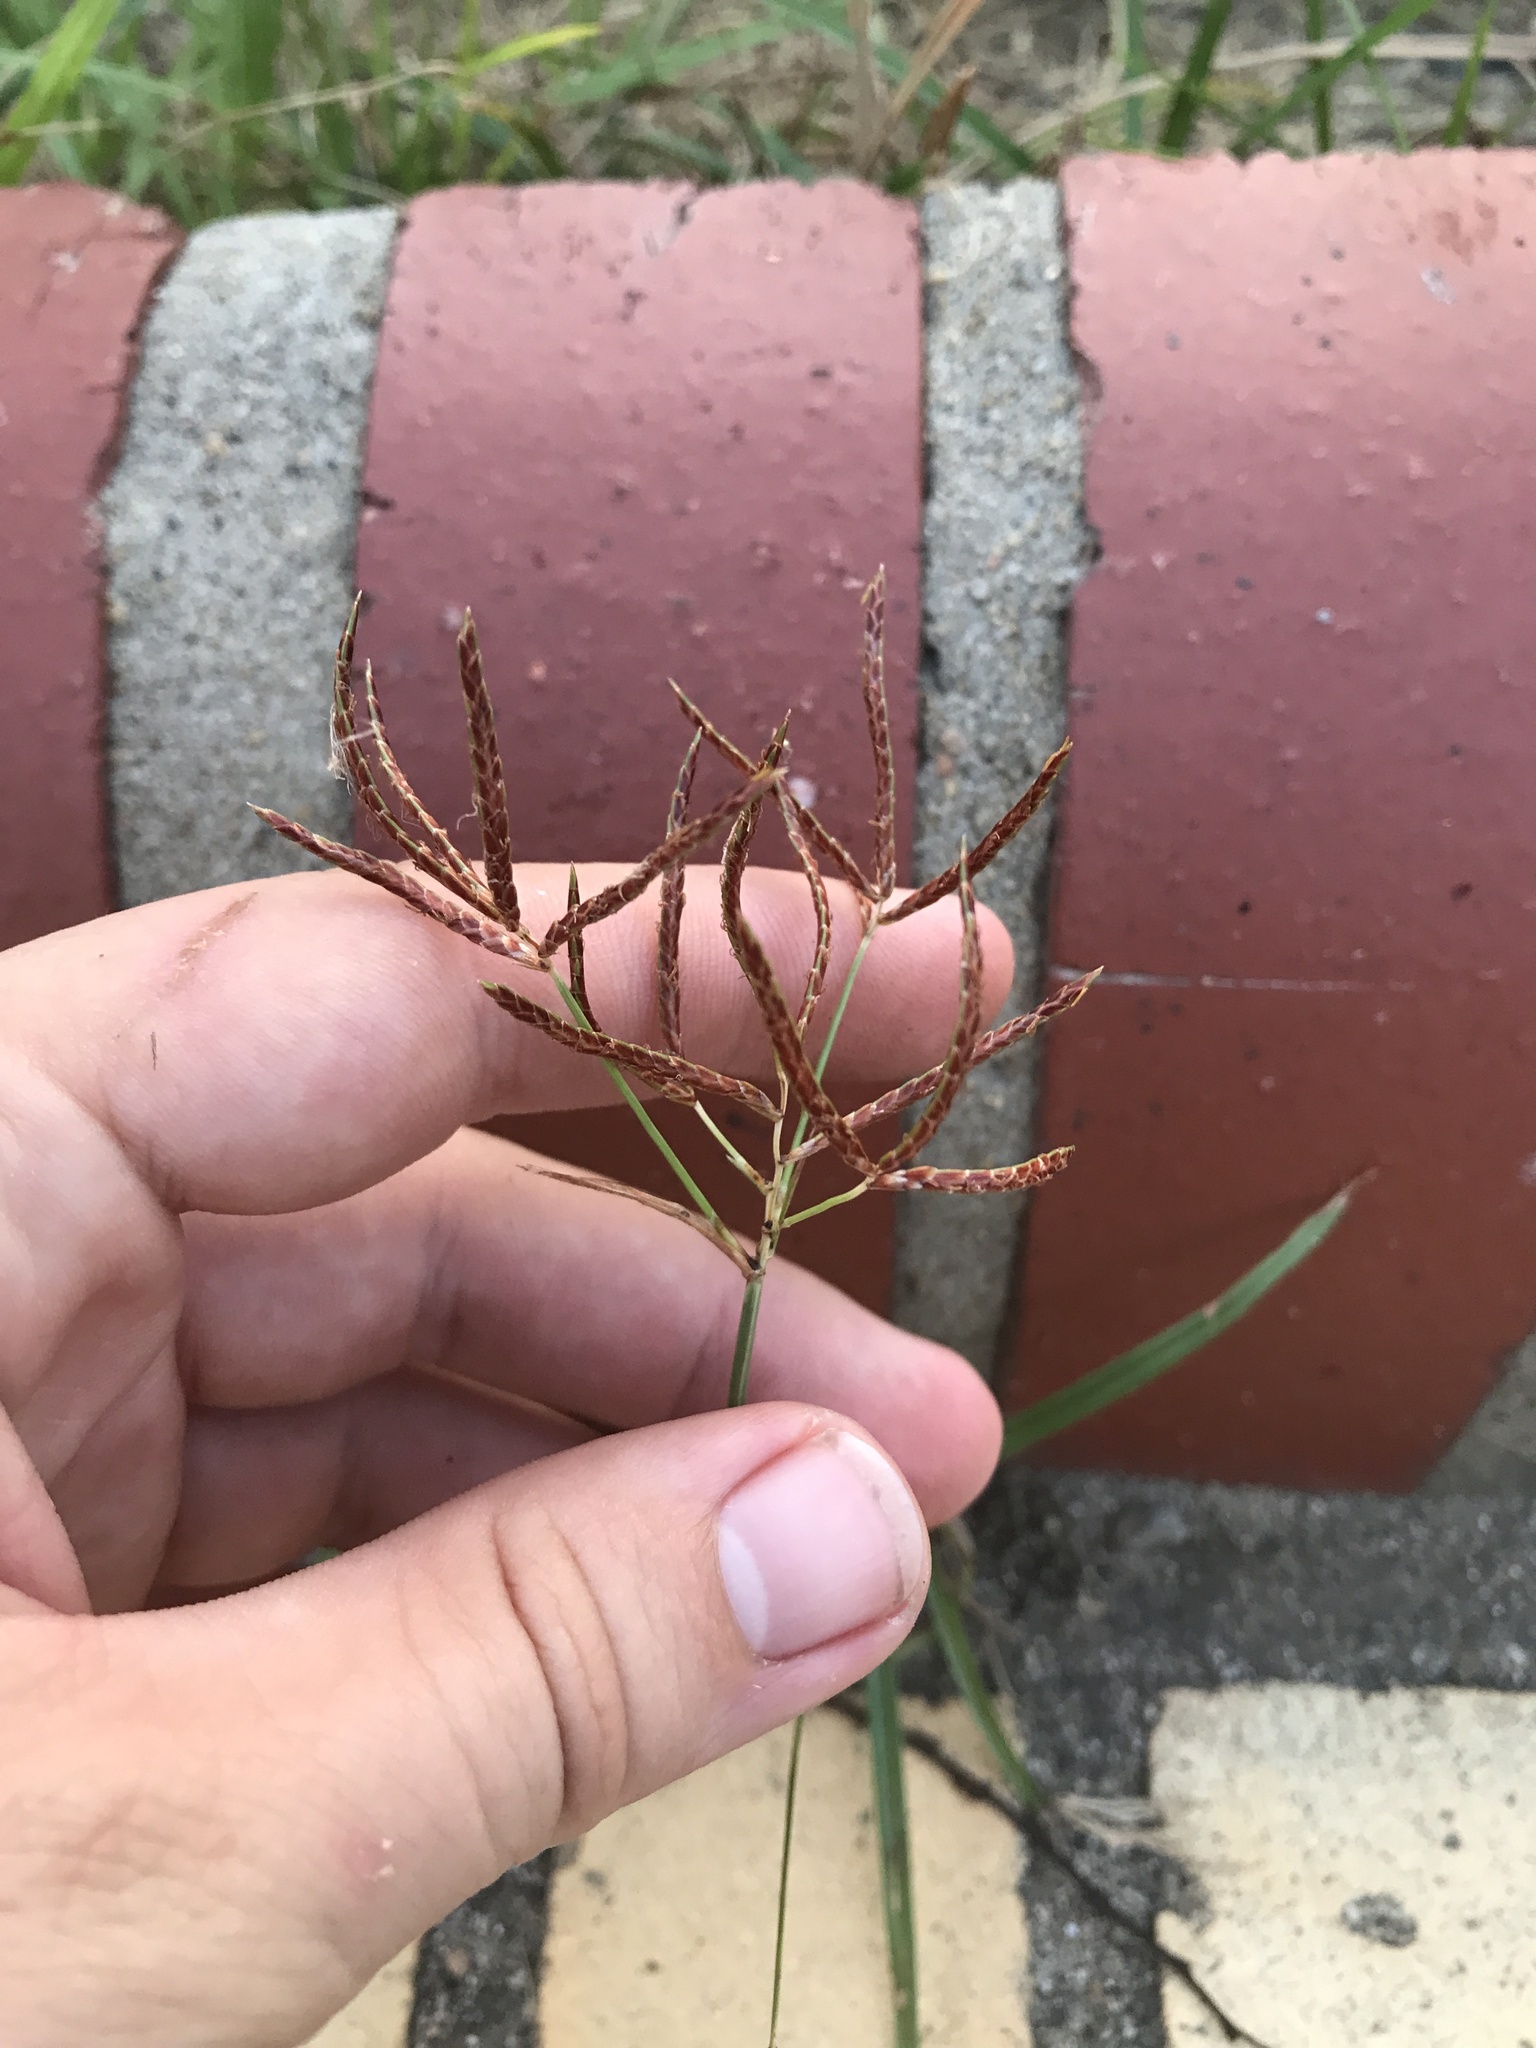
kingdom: Plantae
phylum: Tracheophyta
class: Liliopsida
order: Poales
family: Cyperaceae
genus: Cyperus
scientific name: Cyperus rotundus
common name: Nutgrass
